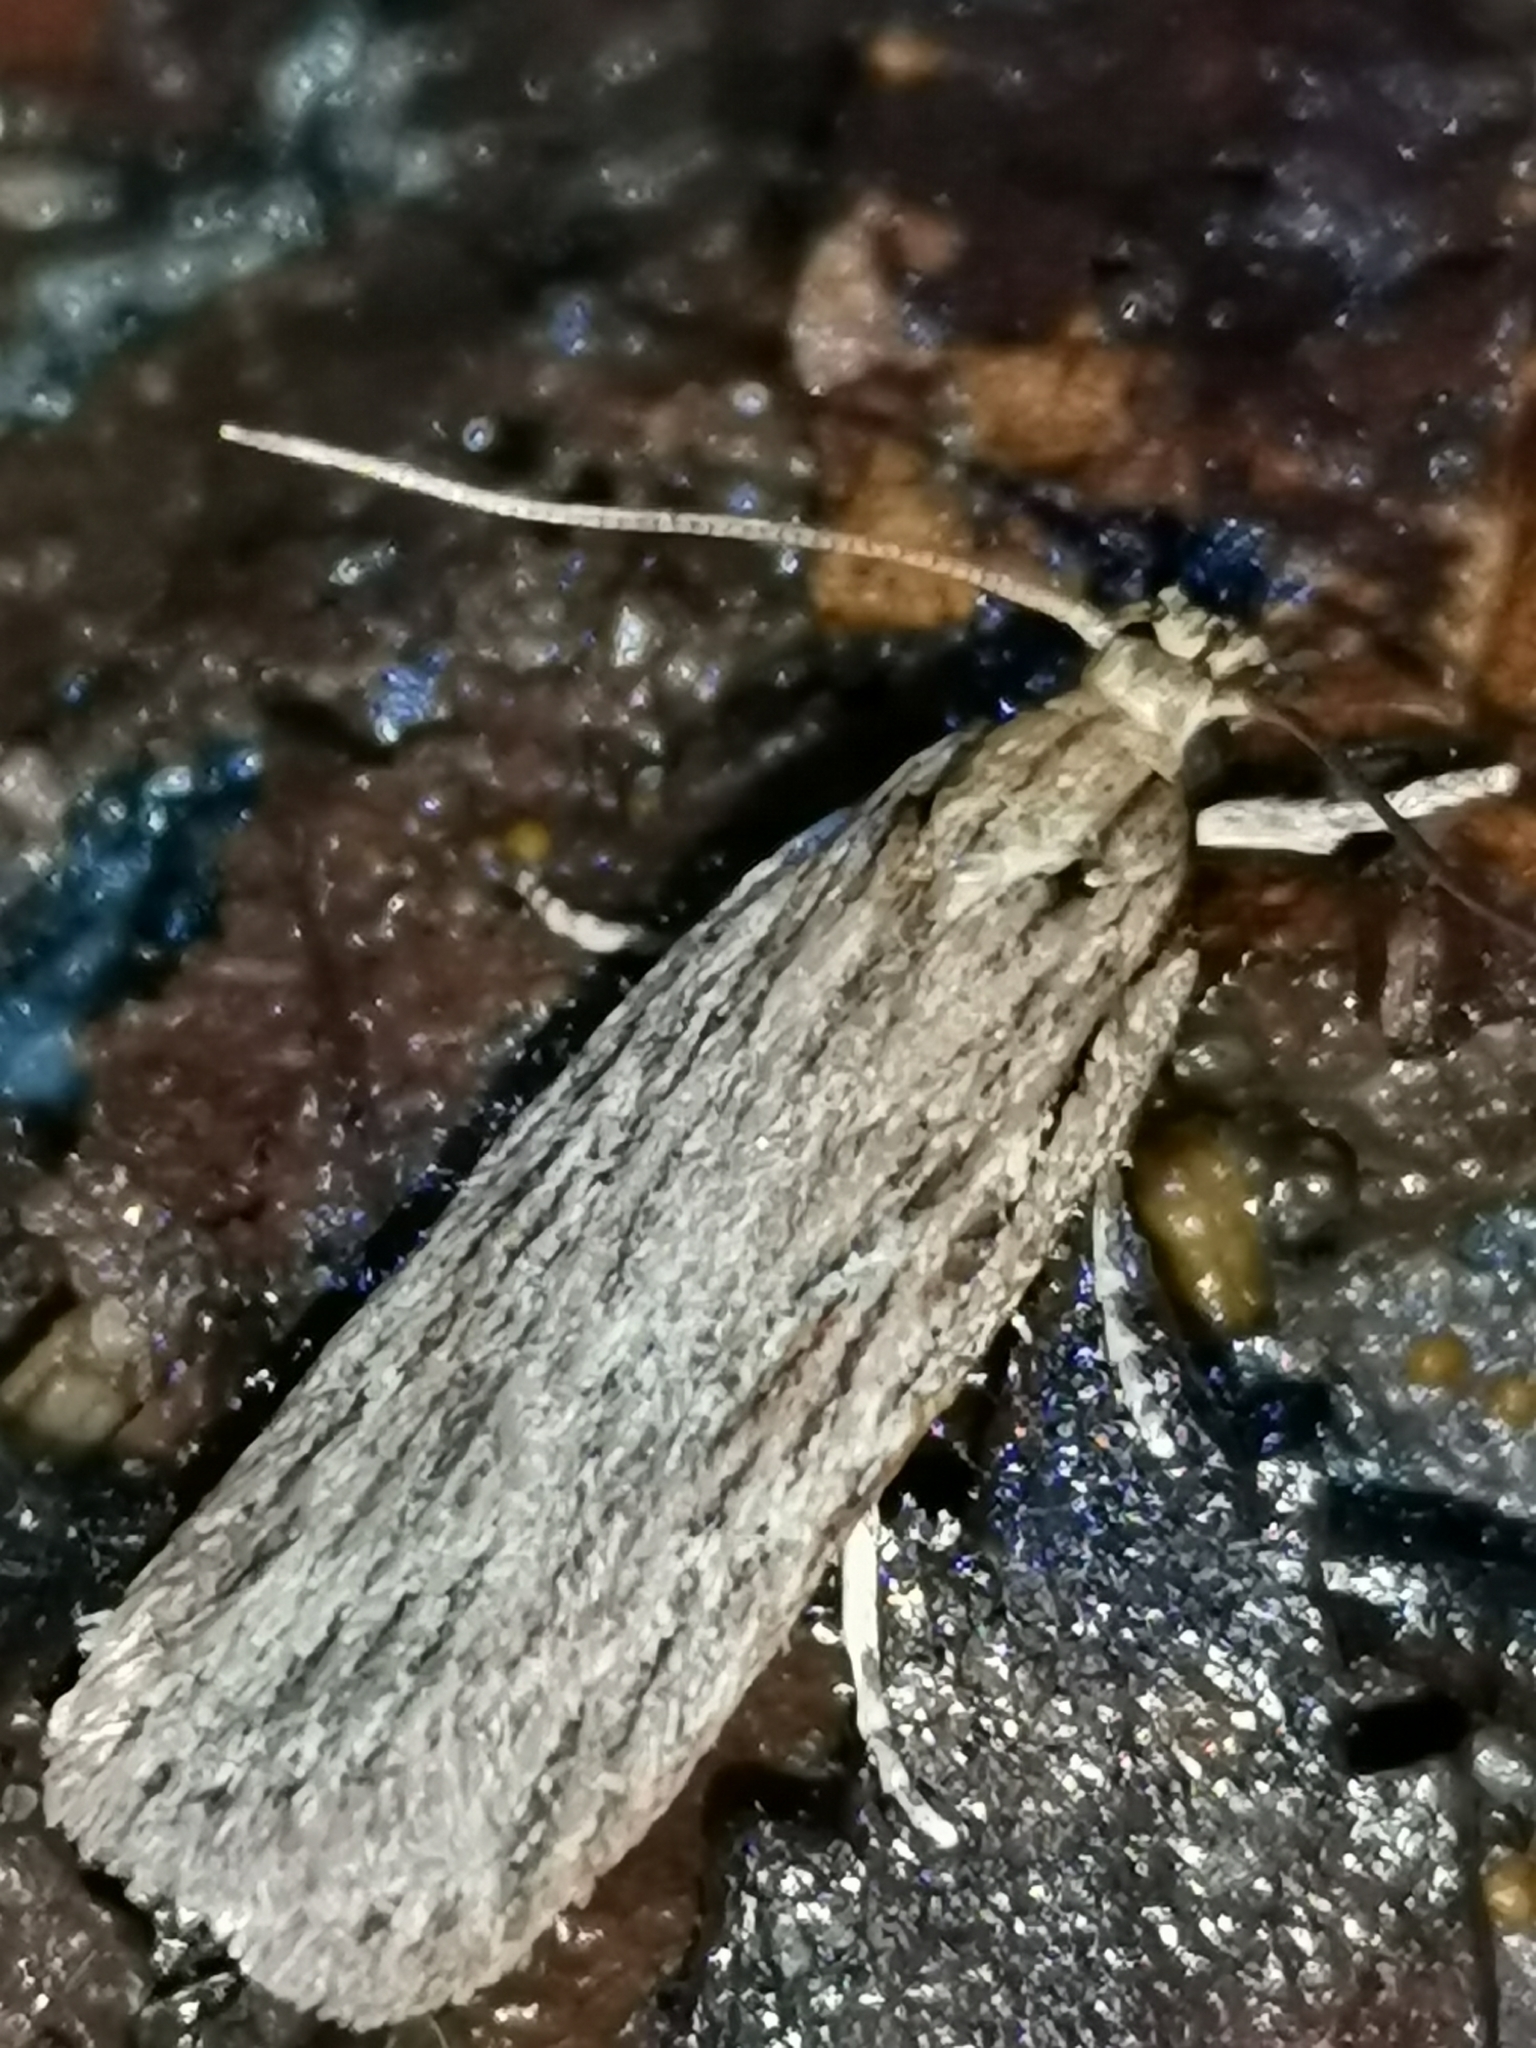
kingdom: Animalia
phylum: Arthropoda
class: Insecta
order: Lepidoptera
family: Depressariidae
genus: Depressaria
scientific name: Depressaria apiella
